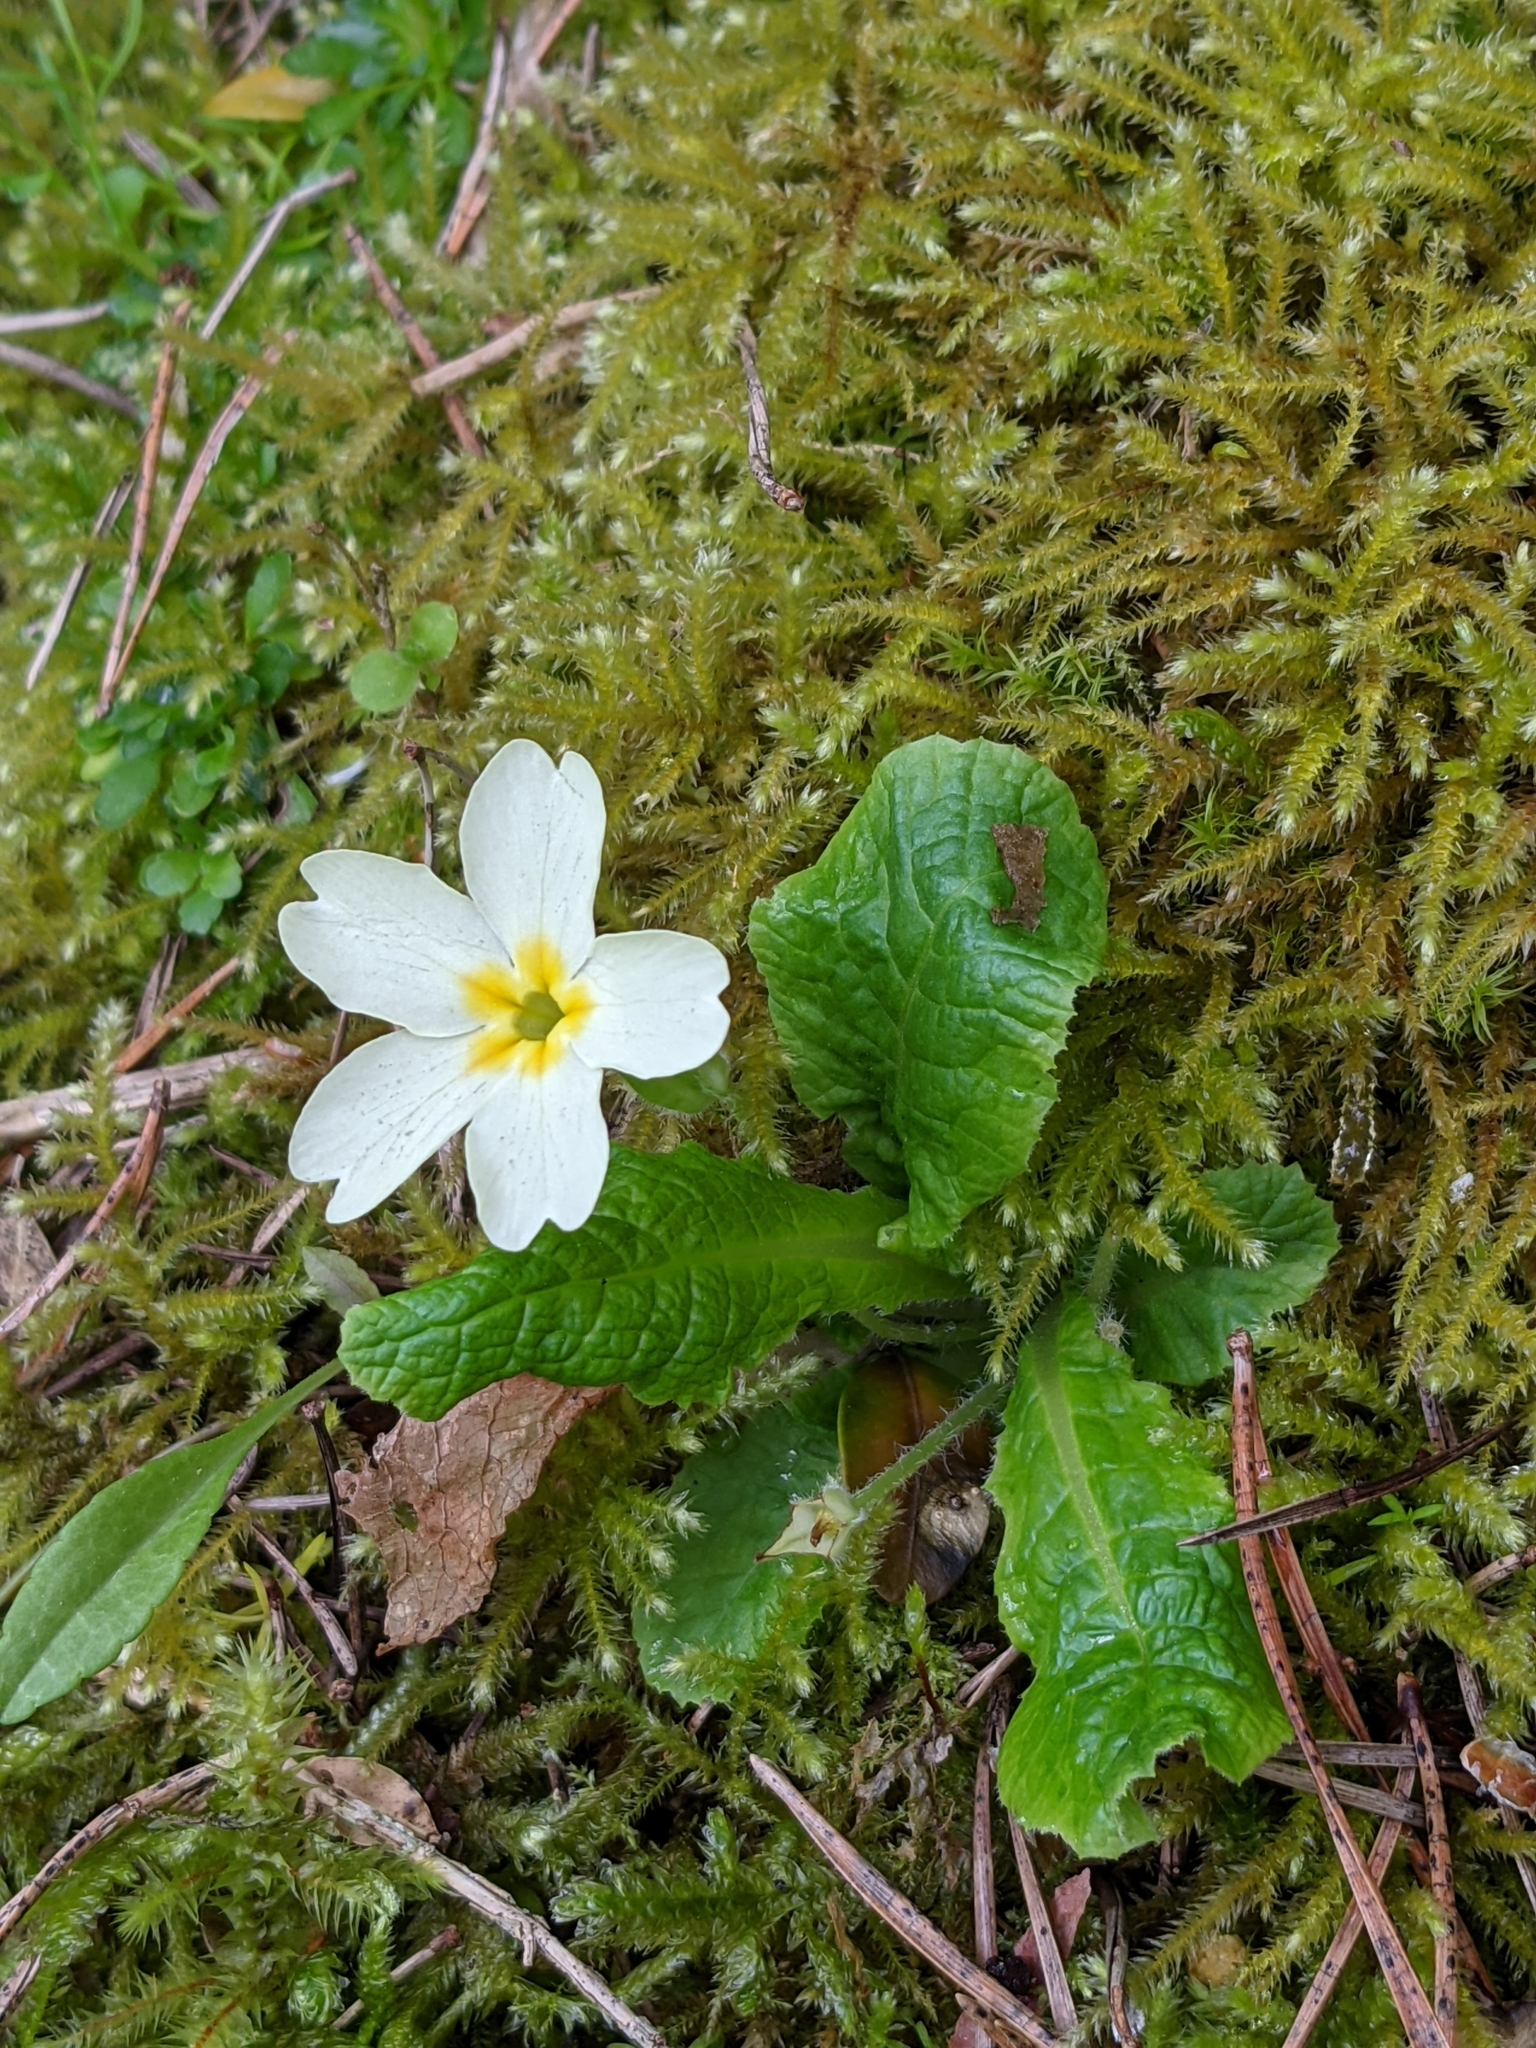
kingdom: Plantae
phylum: Tracheophyta
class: Magnoliopsida
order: Ericales
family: Primulaceae
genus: Primula
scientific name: Primula vulgaris
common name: Primrose
